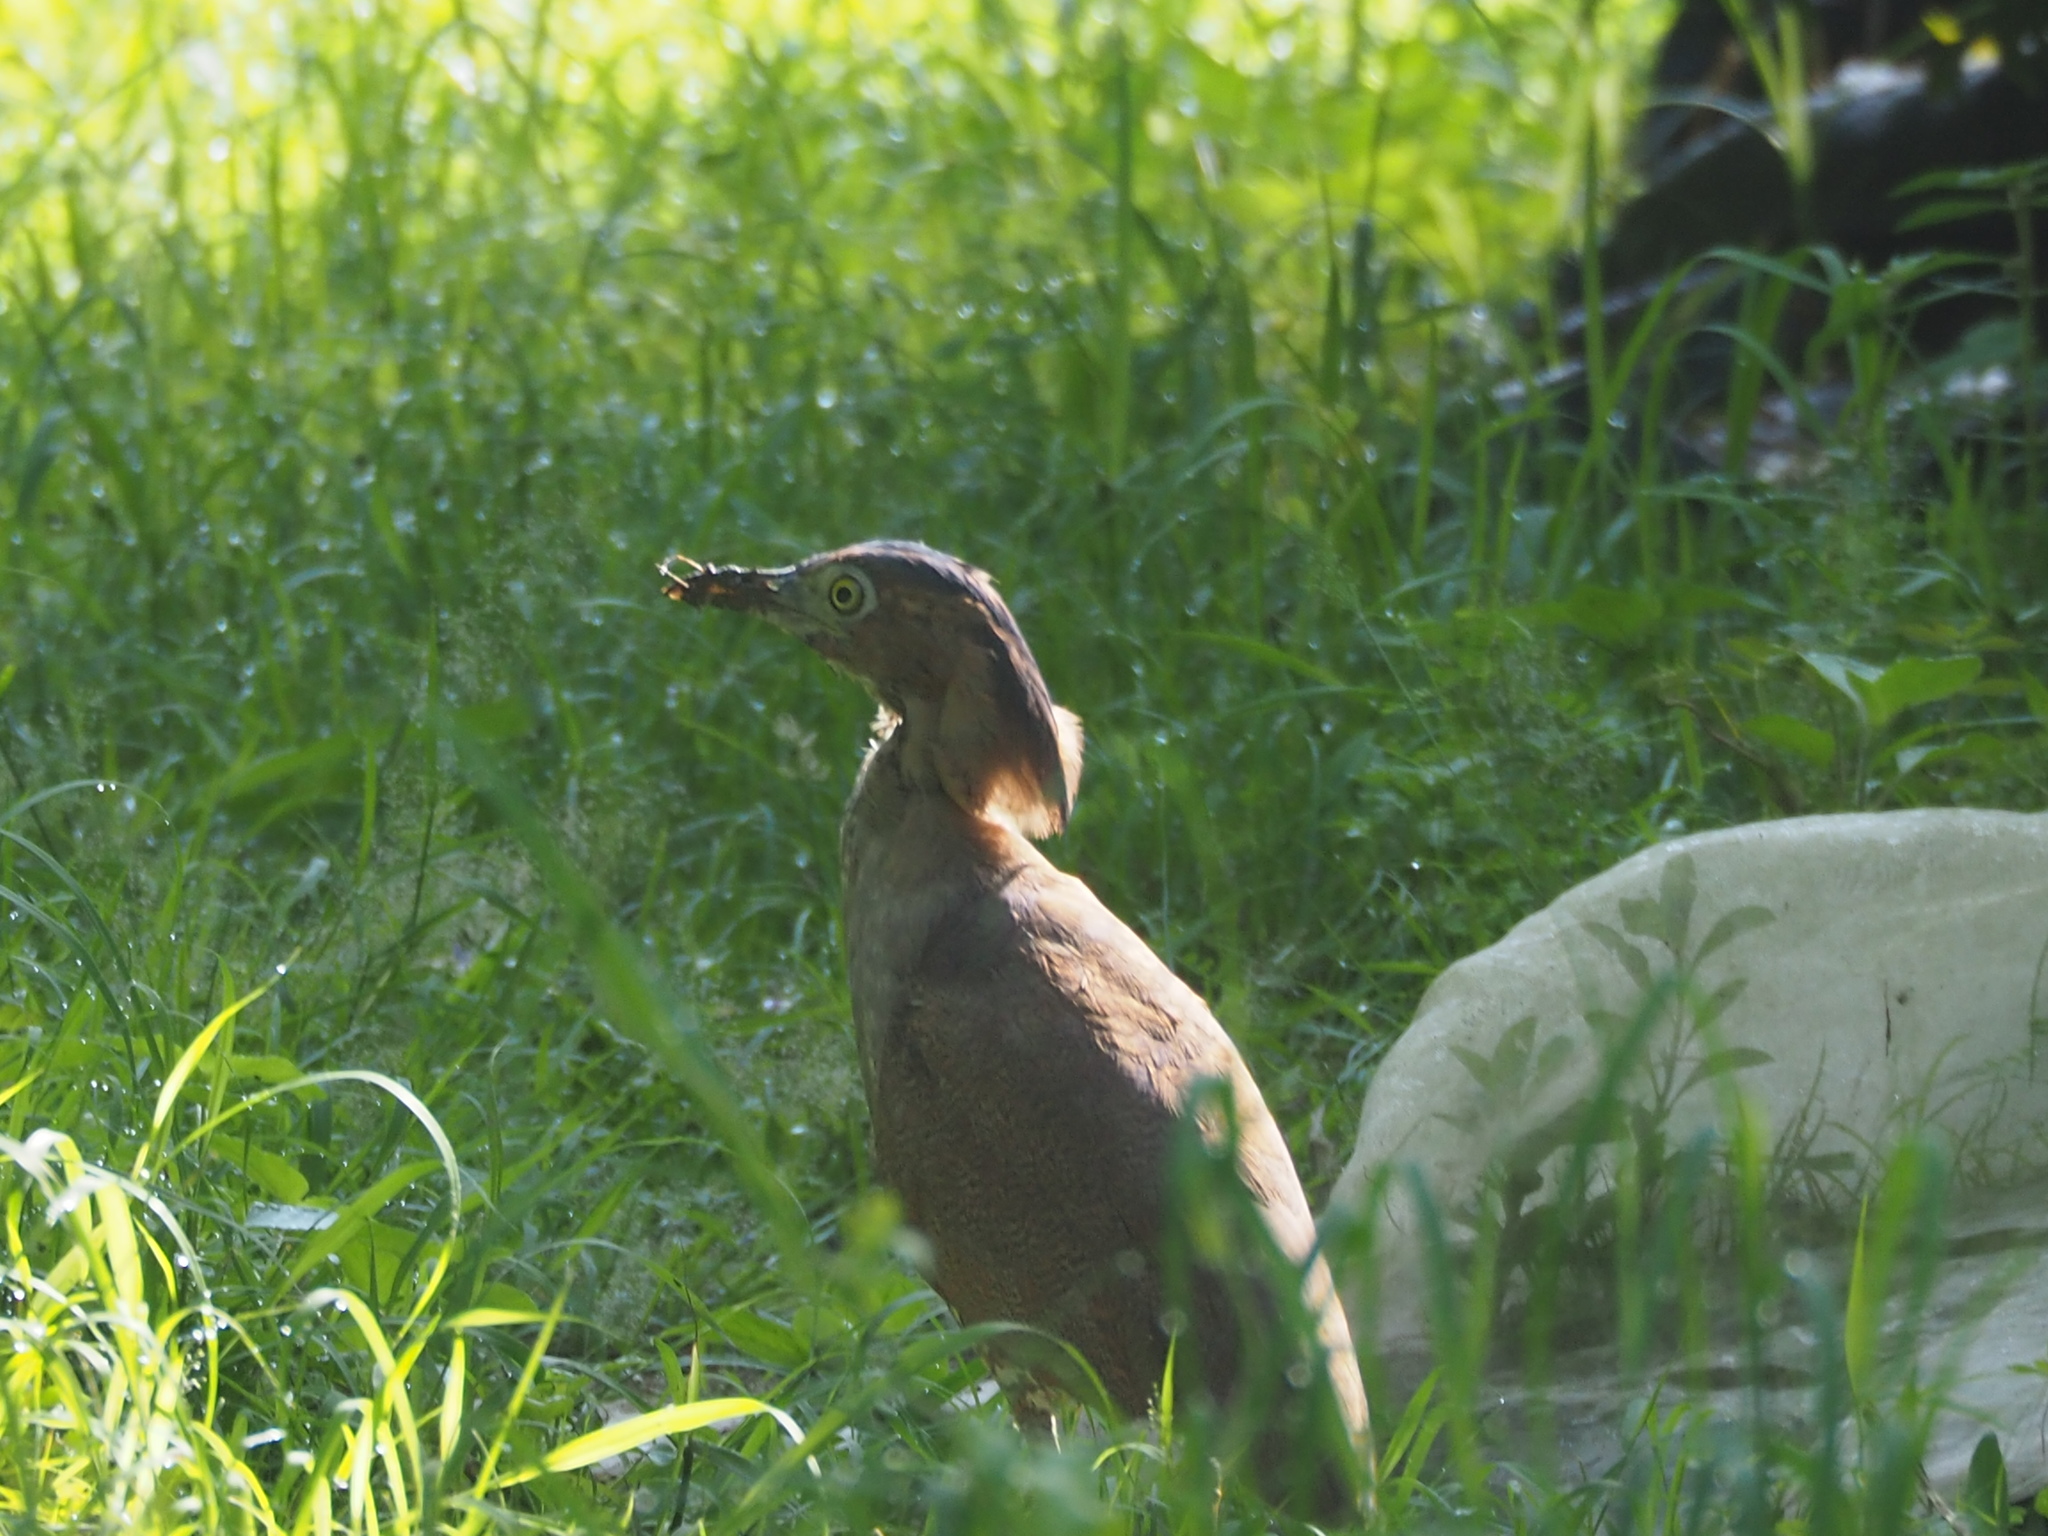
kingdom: Animalia
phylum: Chordata
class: Aves
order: Pelecaniformes
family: Ardeidae
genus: Gorsachius
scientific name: Gorsachius melanolophus
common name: Malayan night heron
